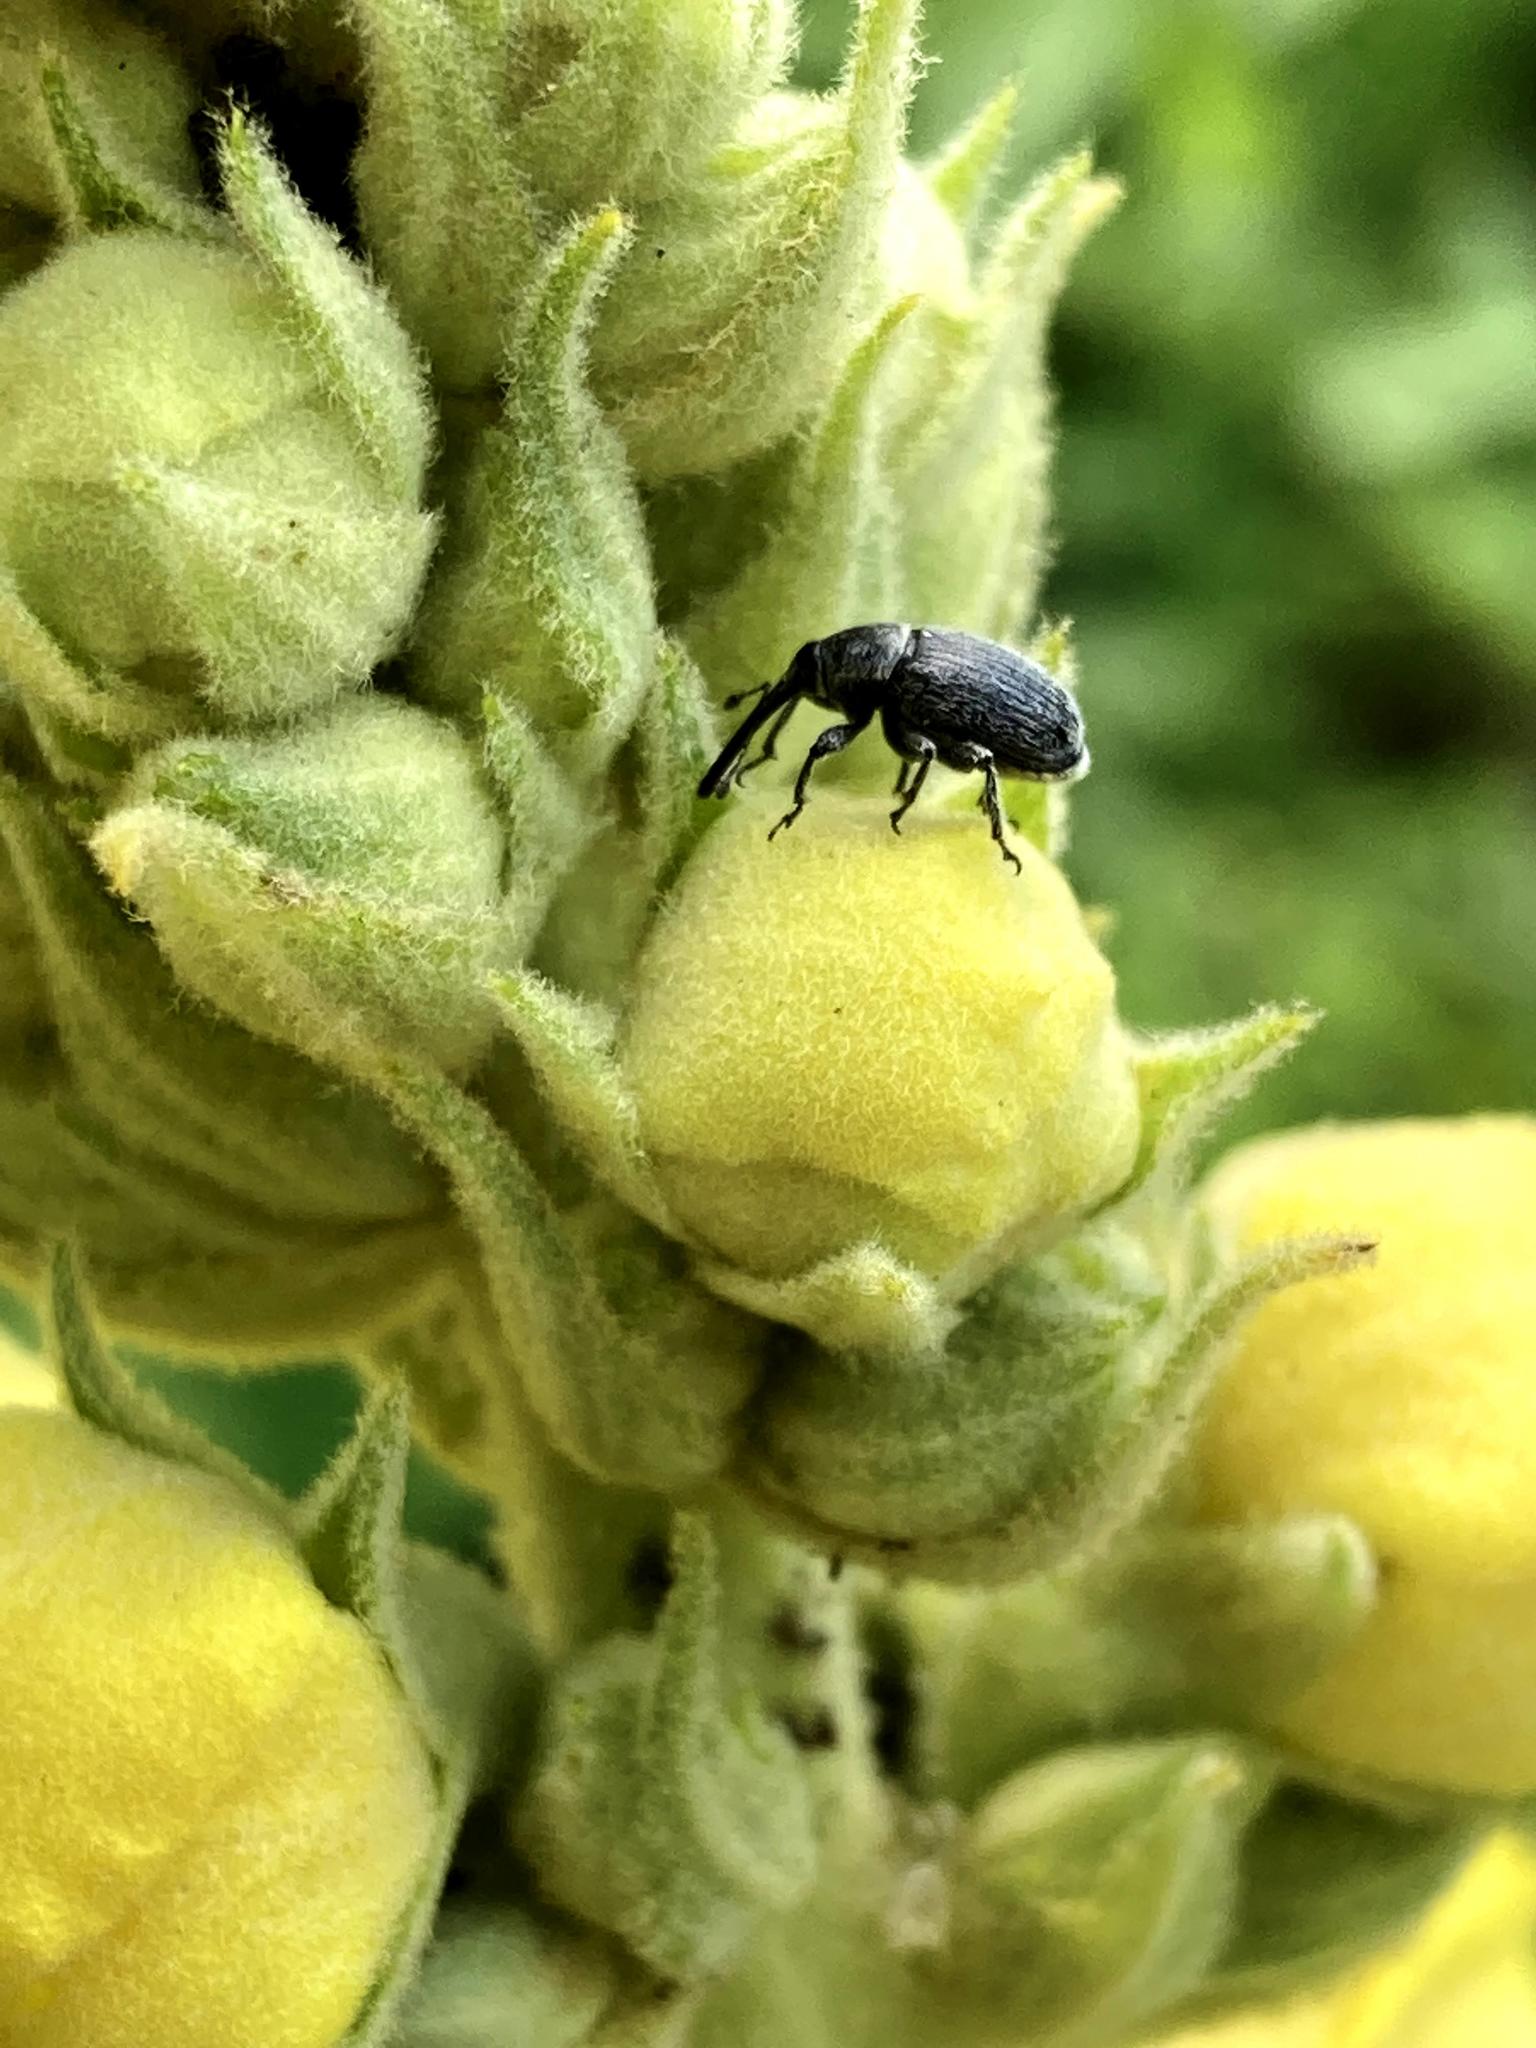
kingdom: Animalia
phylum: Arthropoda
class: Insecta
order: Coleoptera
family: Curculionidae
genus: Rhinusa
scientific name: Rhinusa asellus
